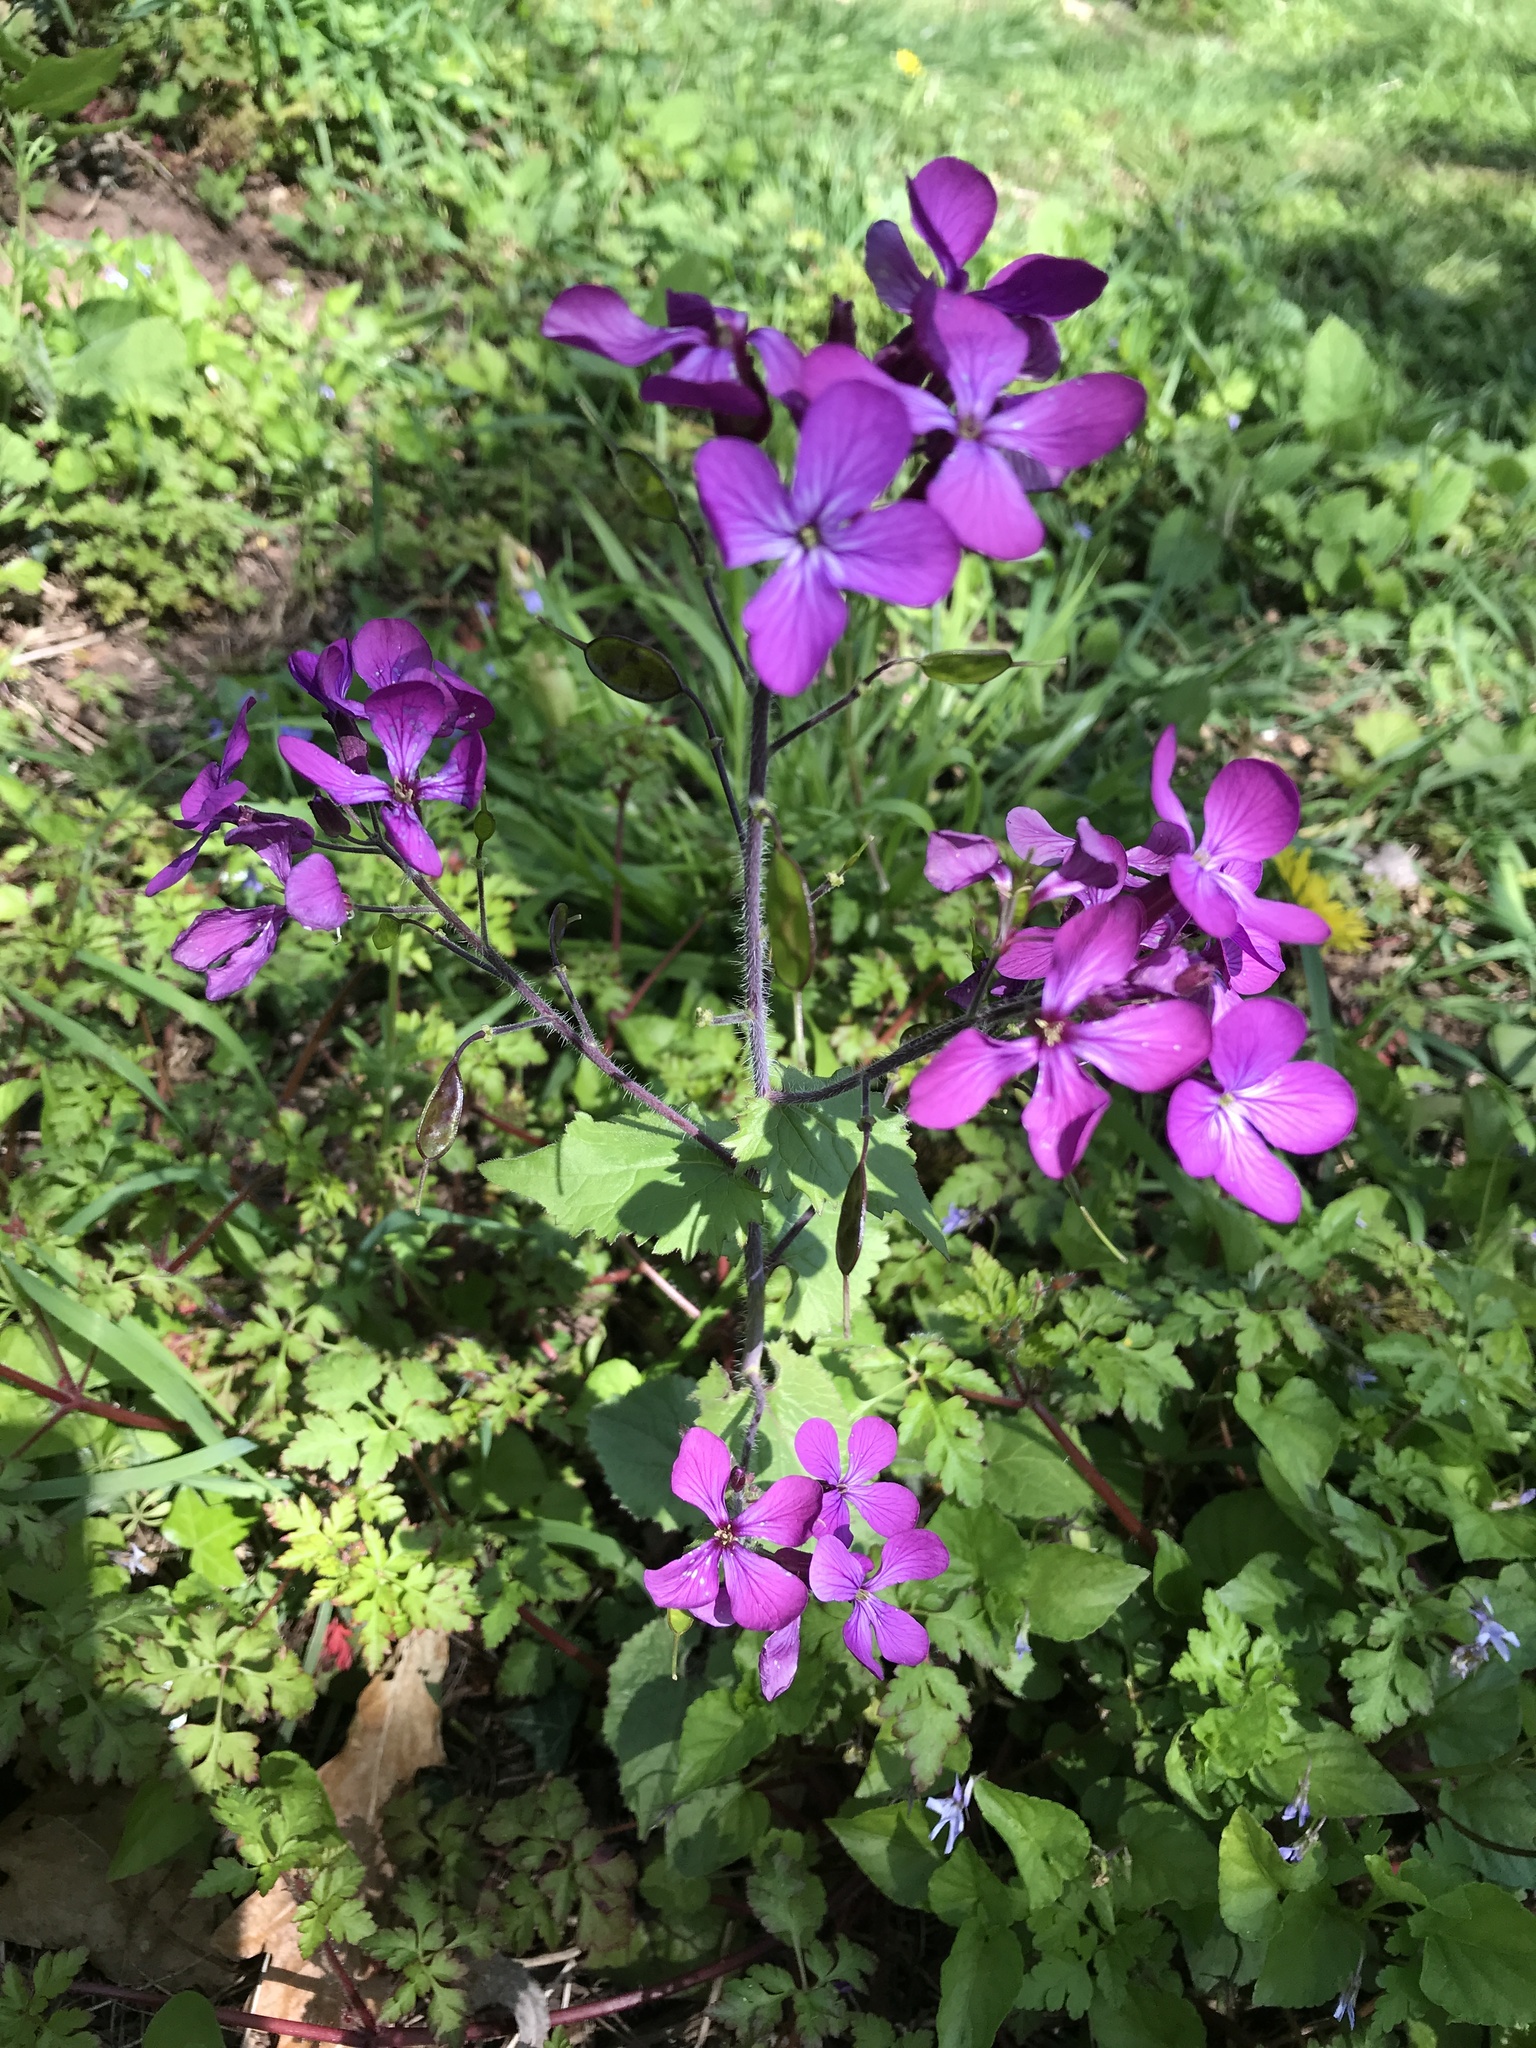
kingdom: Plantae
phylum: Tracheophyta
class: Magnoliopsida
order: Brassicales
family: Brassicaceae
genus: Lunaria
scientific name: Lunaria annua
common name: Honesty
